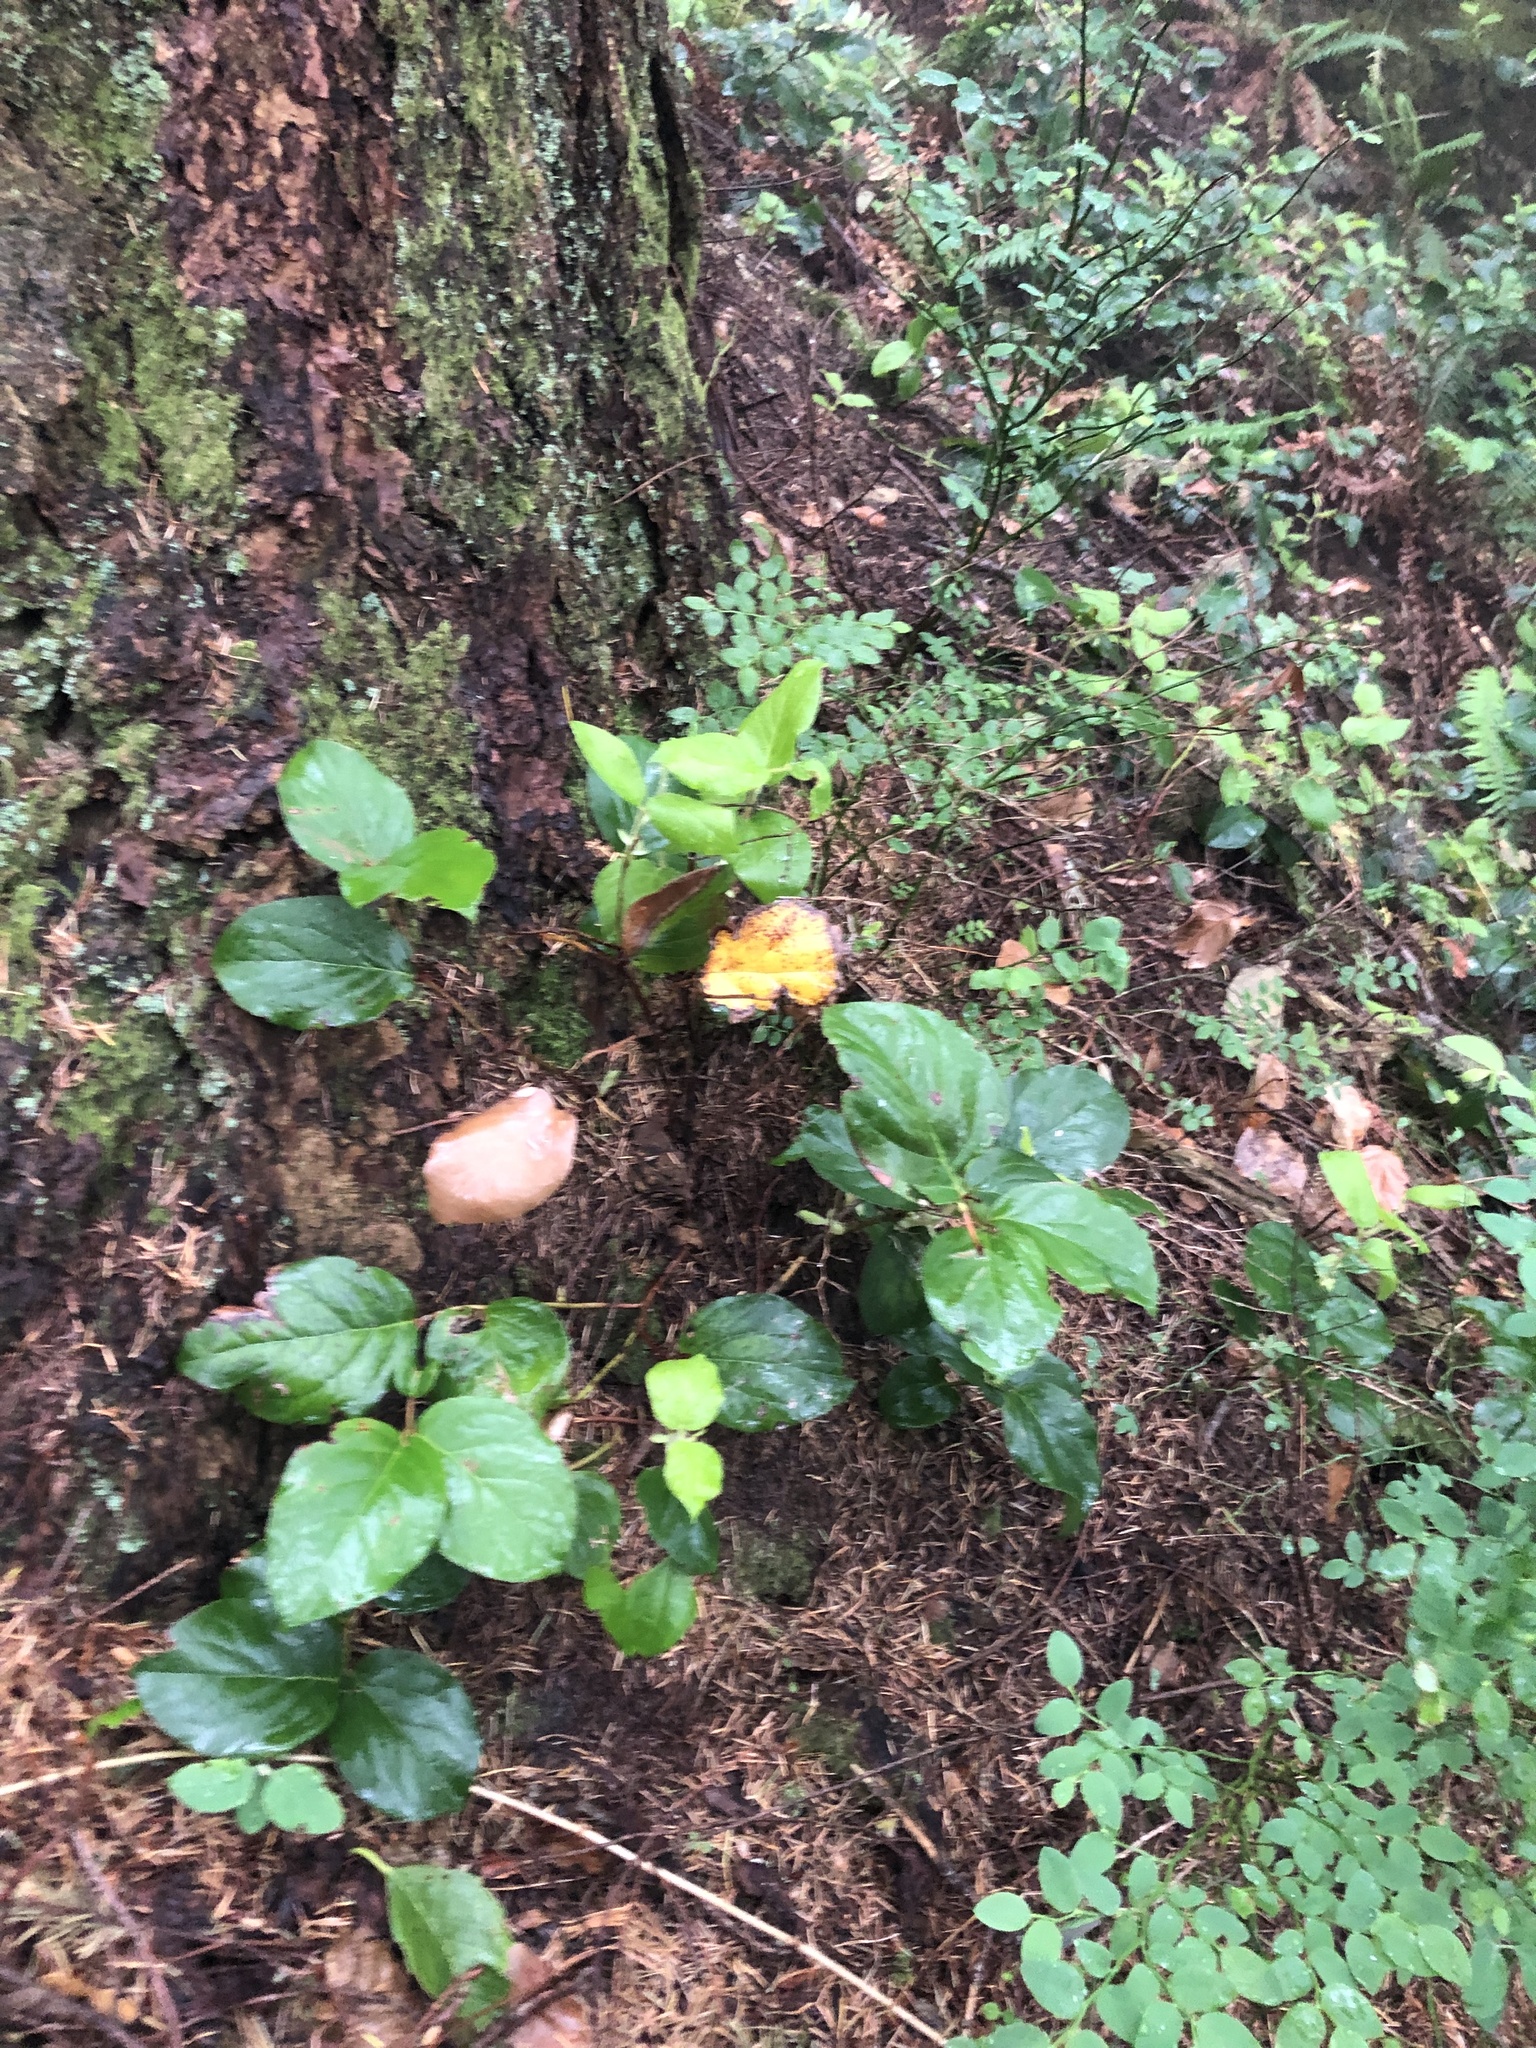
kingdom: Plantae
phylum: Tracheophyta
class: Magnoliopsida
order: Ericales
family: Ericaceae
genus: Gaultheria
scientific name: Gaultheria shallon
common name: Shallon
